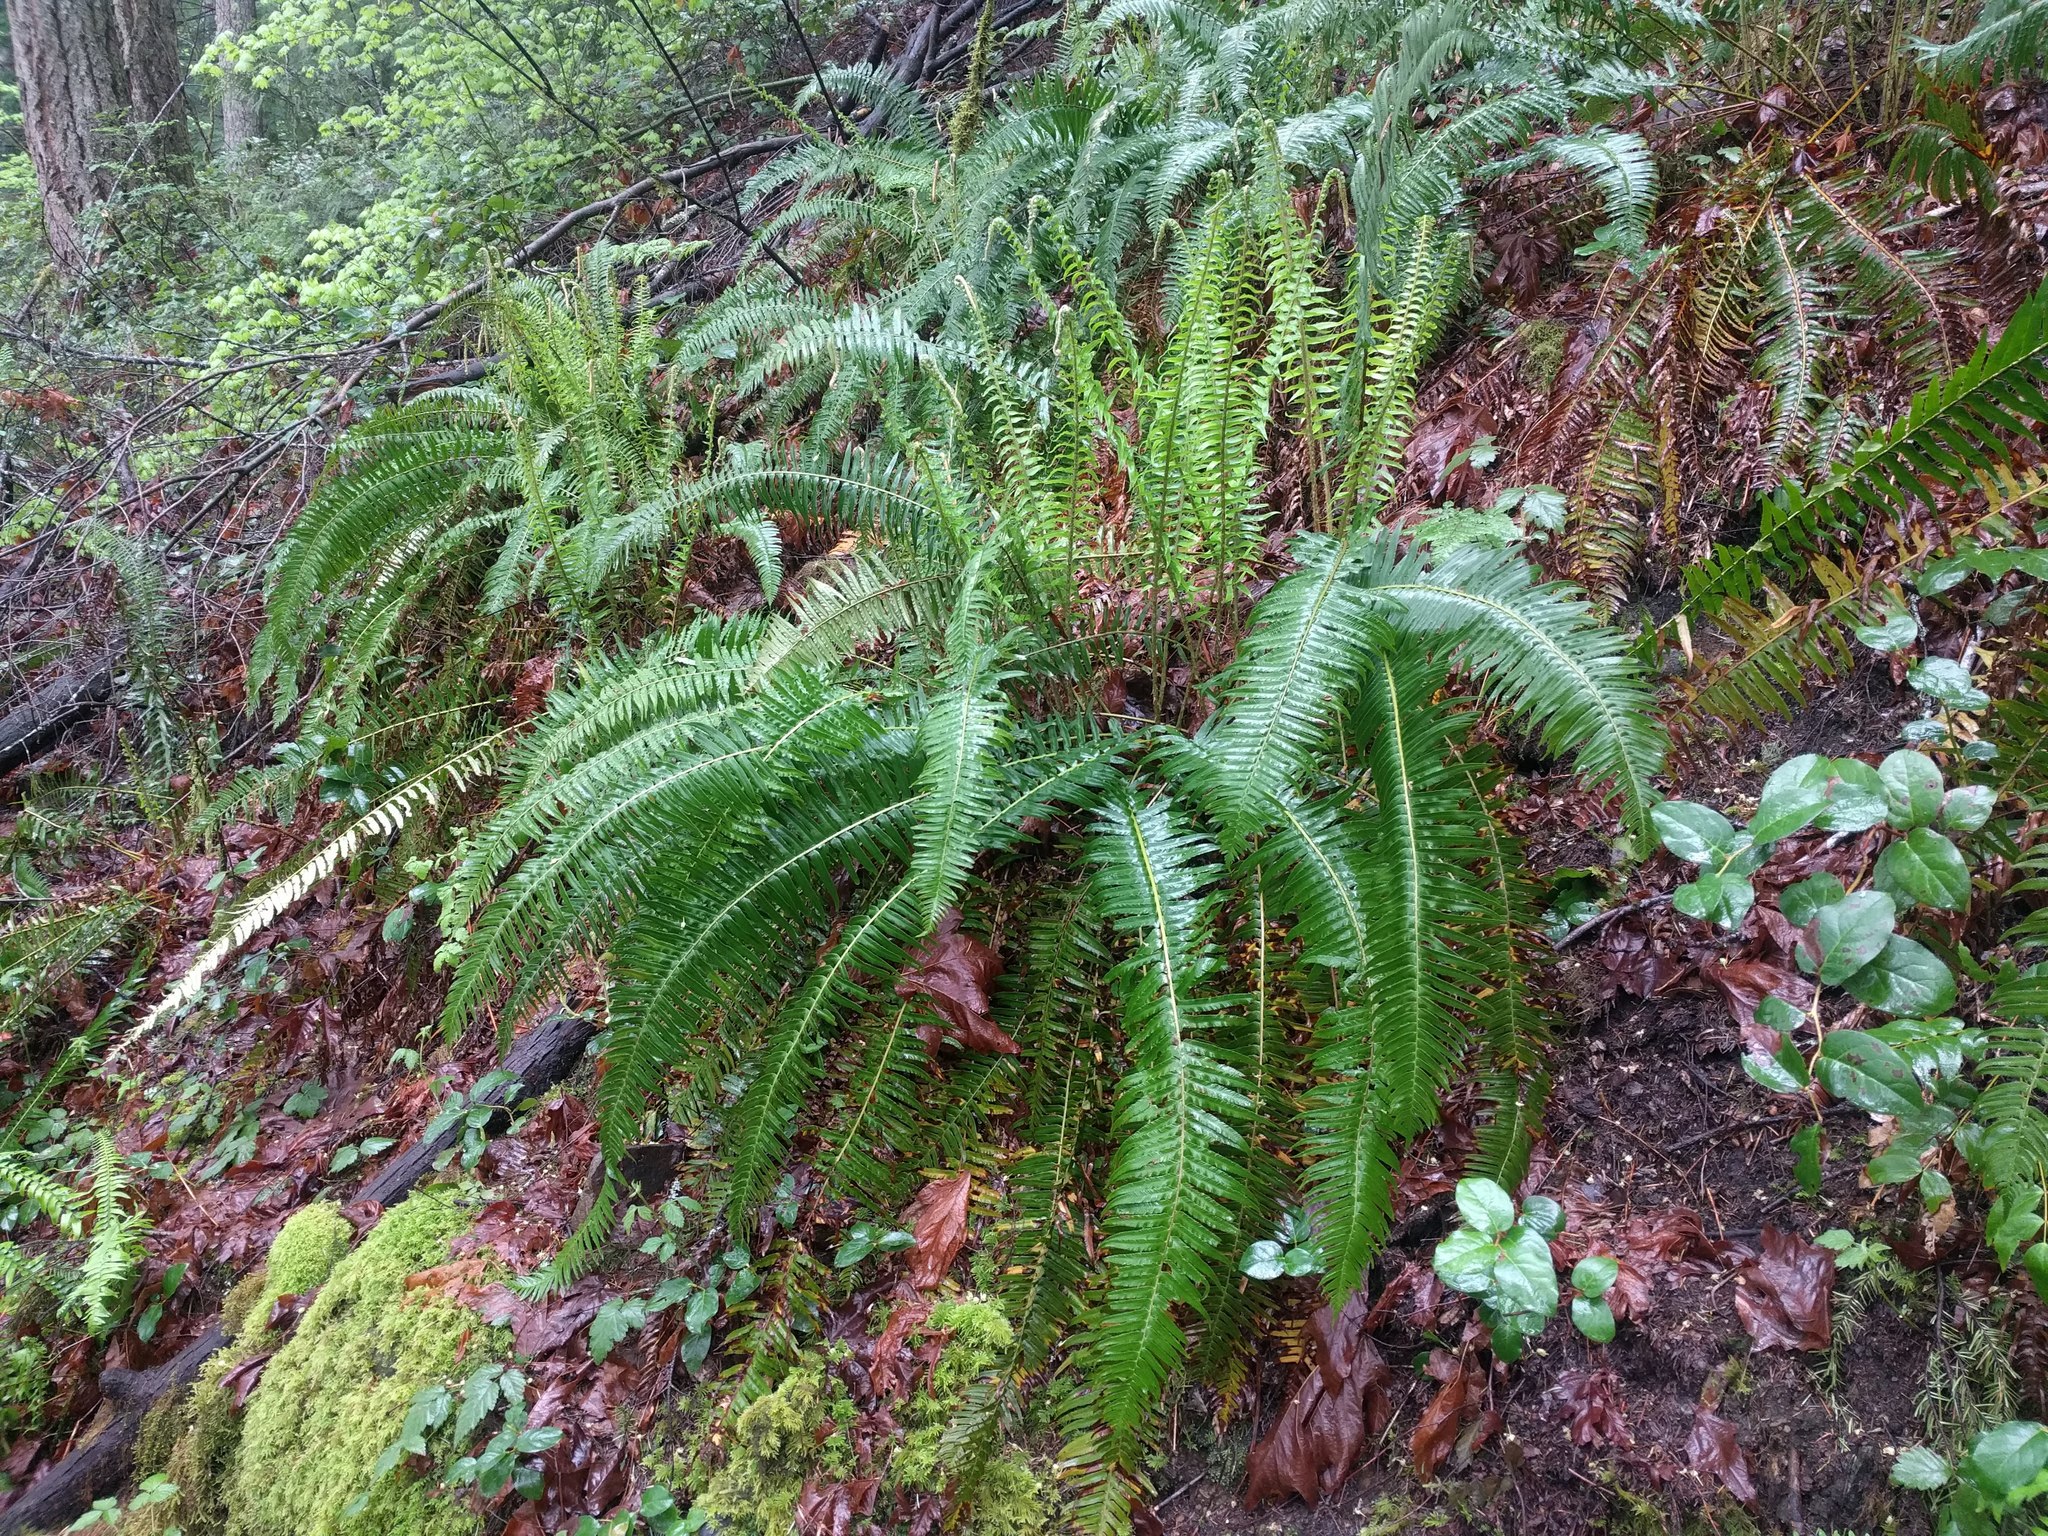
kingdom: Plantae
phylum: Tracheophyta
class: Polypodiopsida
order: Polypodiales
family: Dryopteridaceae
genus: Polystichum
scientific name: Polystichum munitum
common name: Western sword-fern
